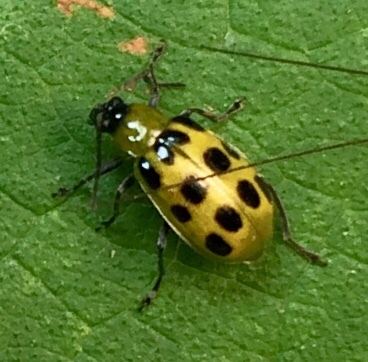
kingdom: Animalia
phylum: Arthropoda
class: Insecta
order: Coleoptera
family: Chrysomelidae
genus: Diabrotica
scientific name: Diabrotica undecimpunctata
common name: Spotted cucumber beetle
